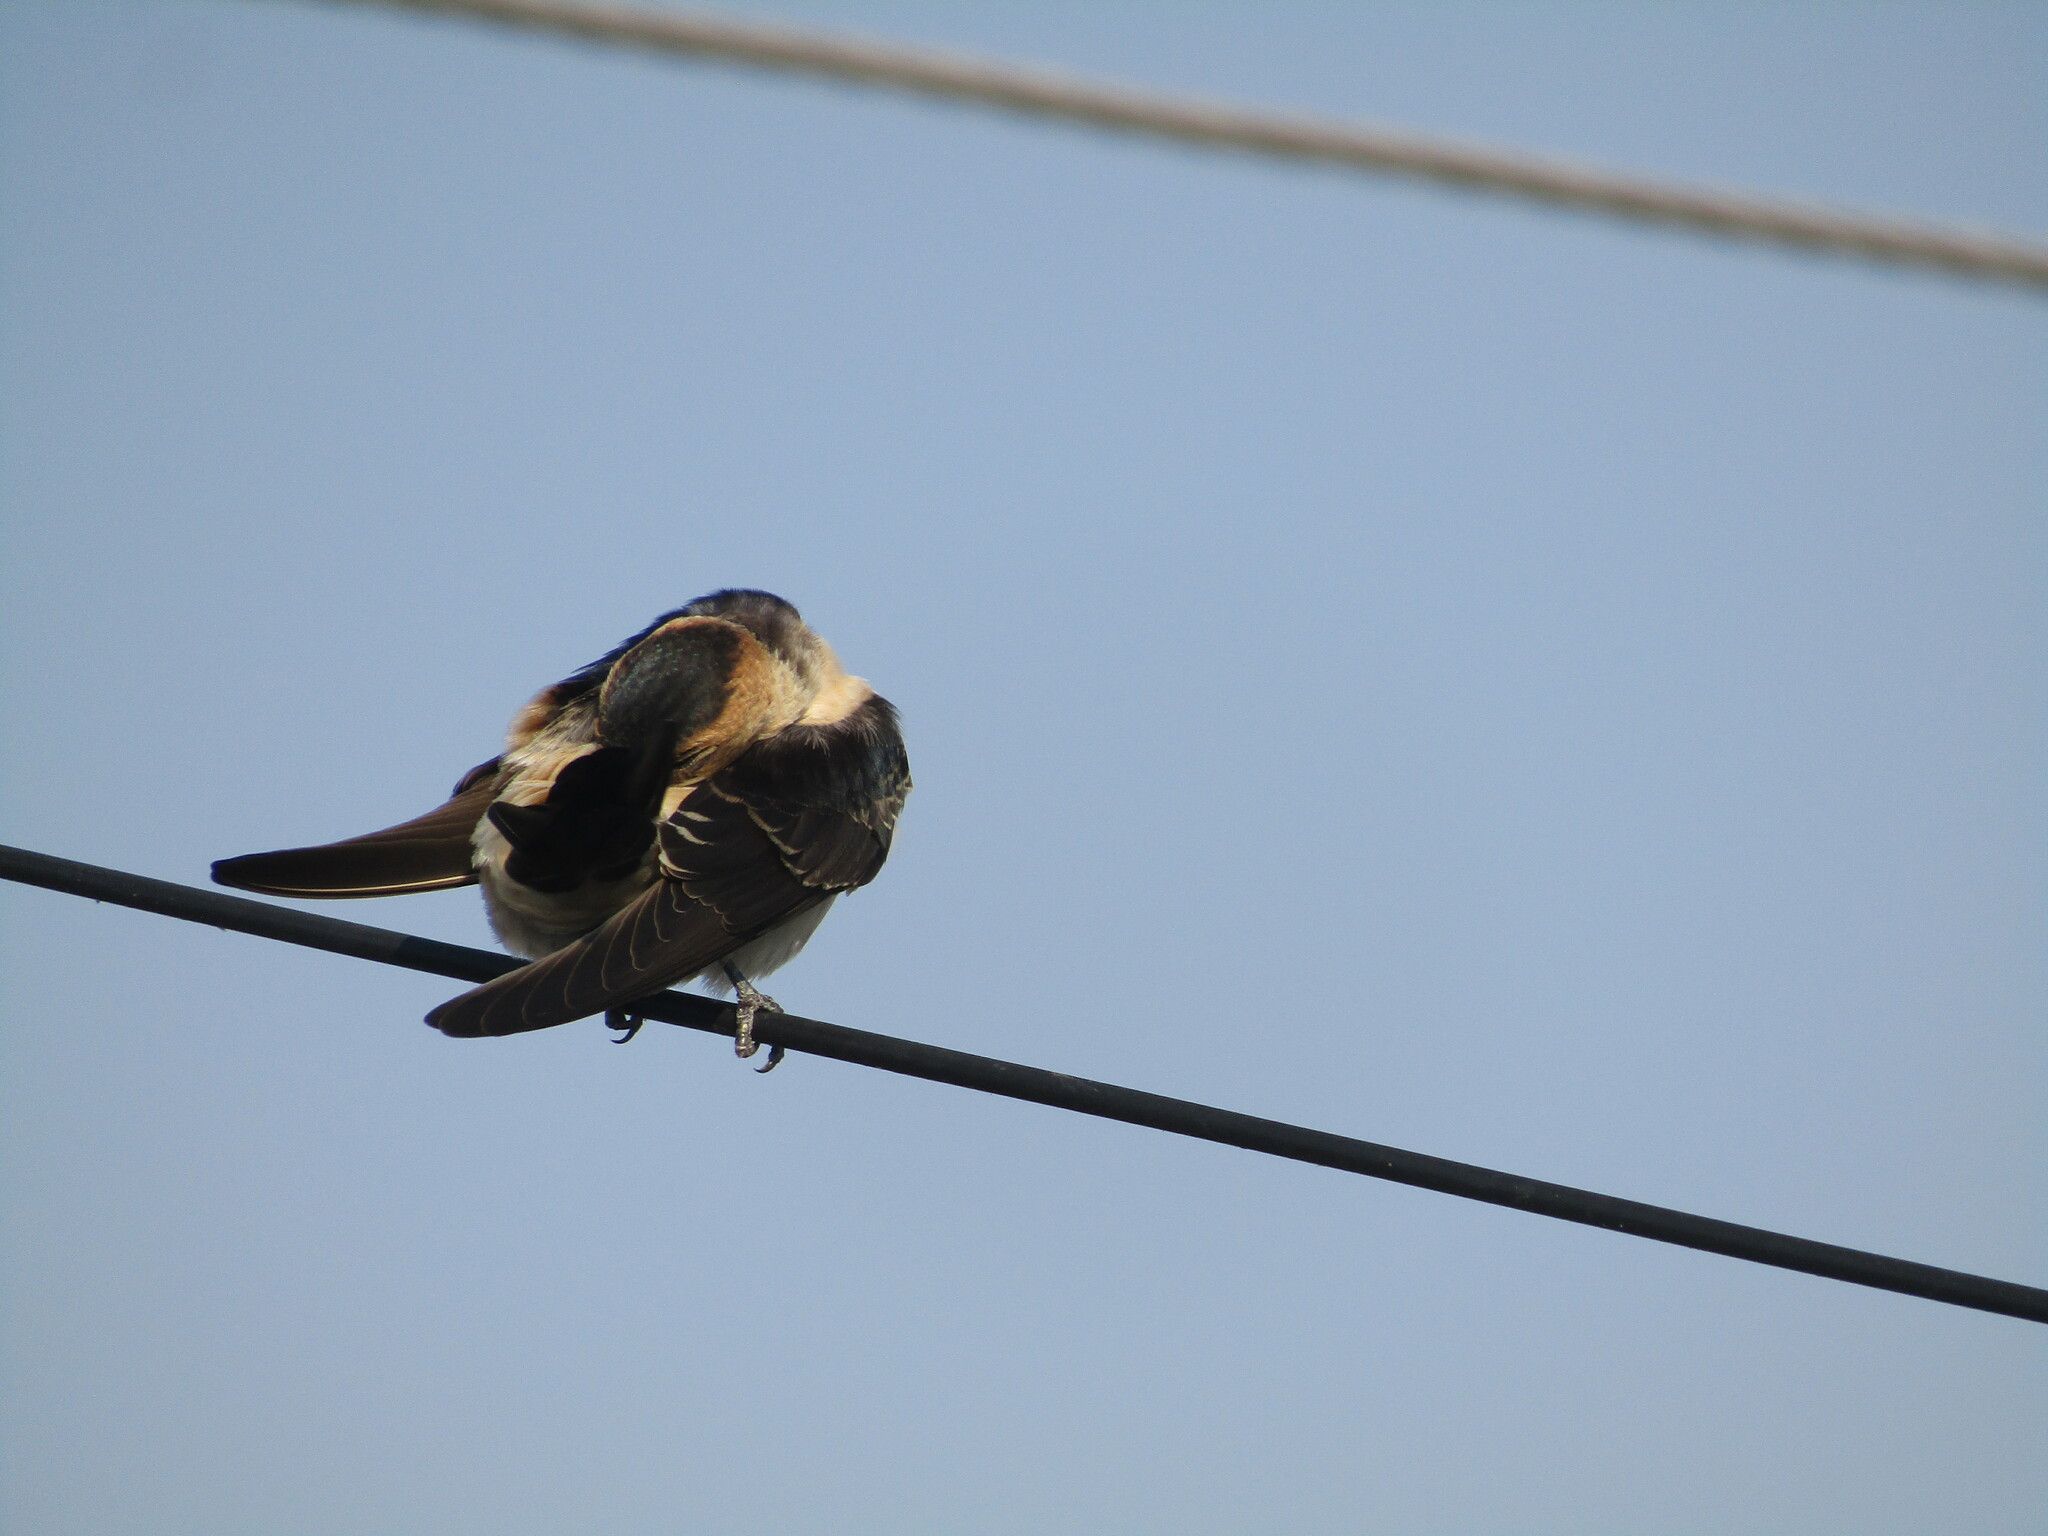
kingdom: Animalia
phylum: Chordata
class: Aves
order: Passeriformes
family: Hirundinidae
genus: Cecropis
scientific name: Cecropis daurica
